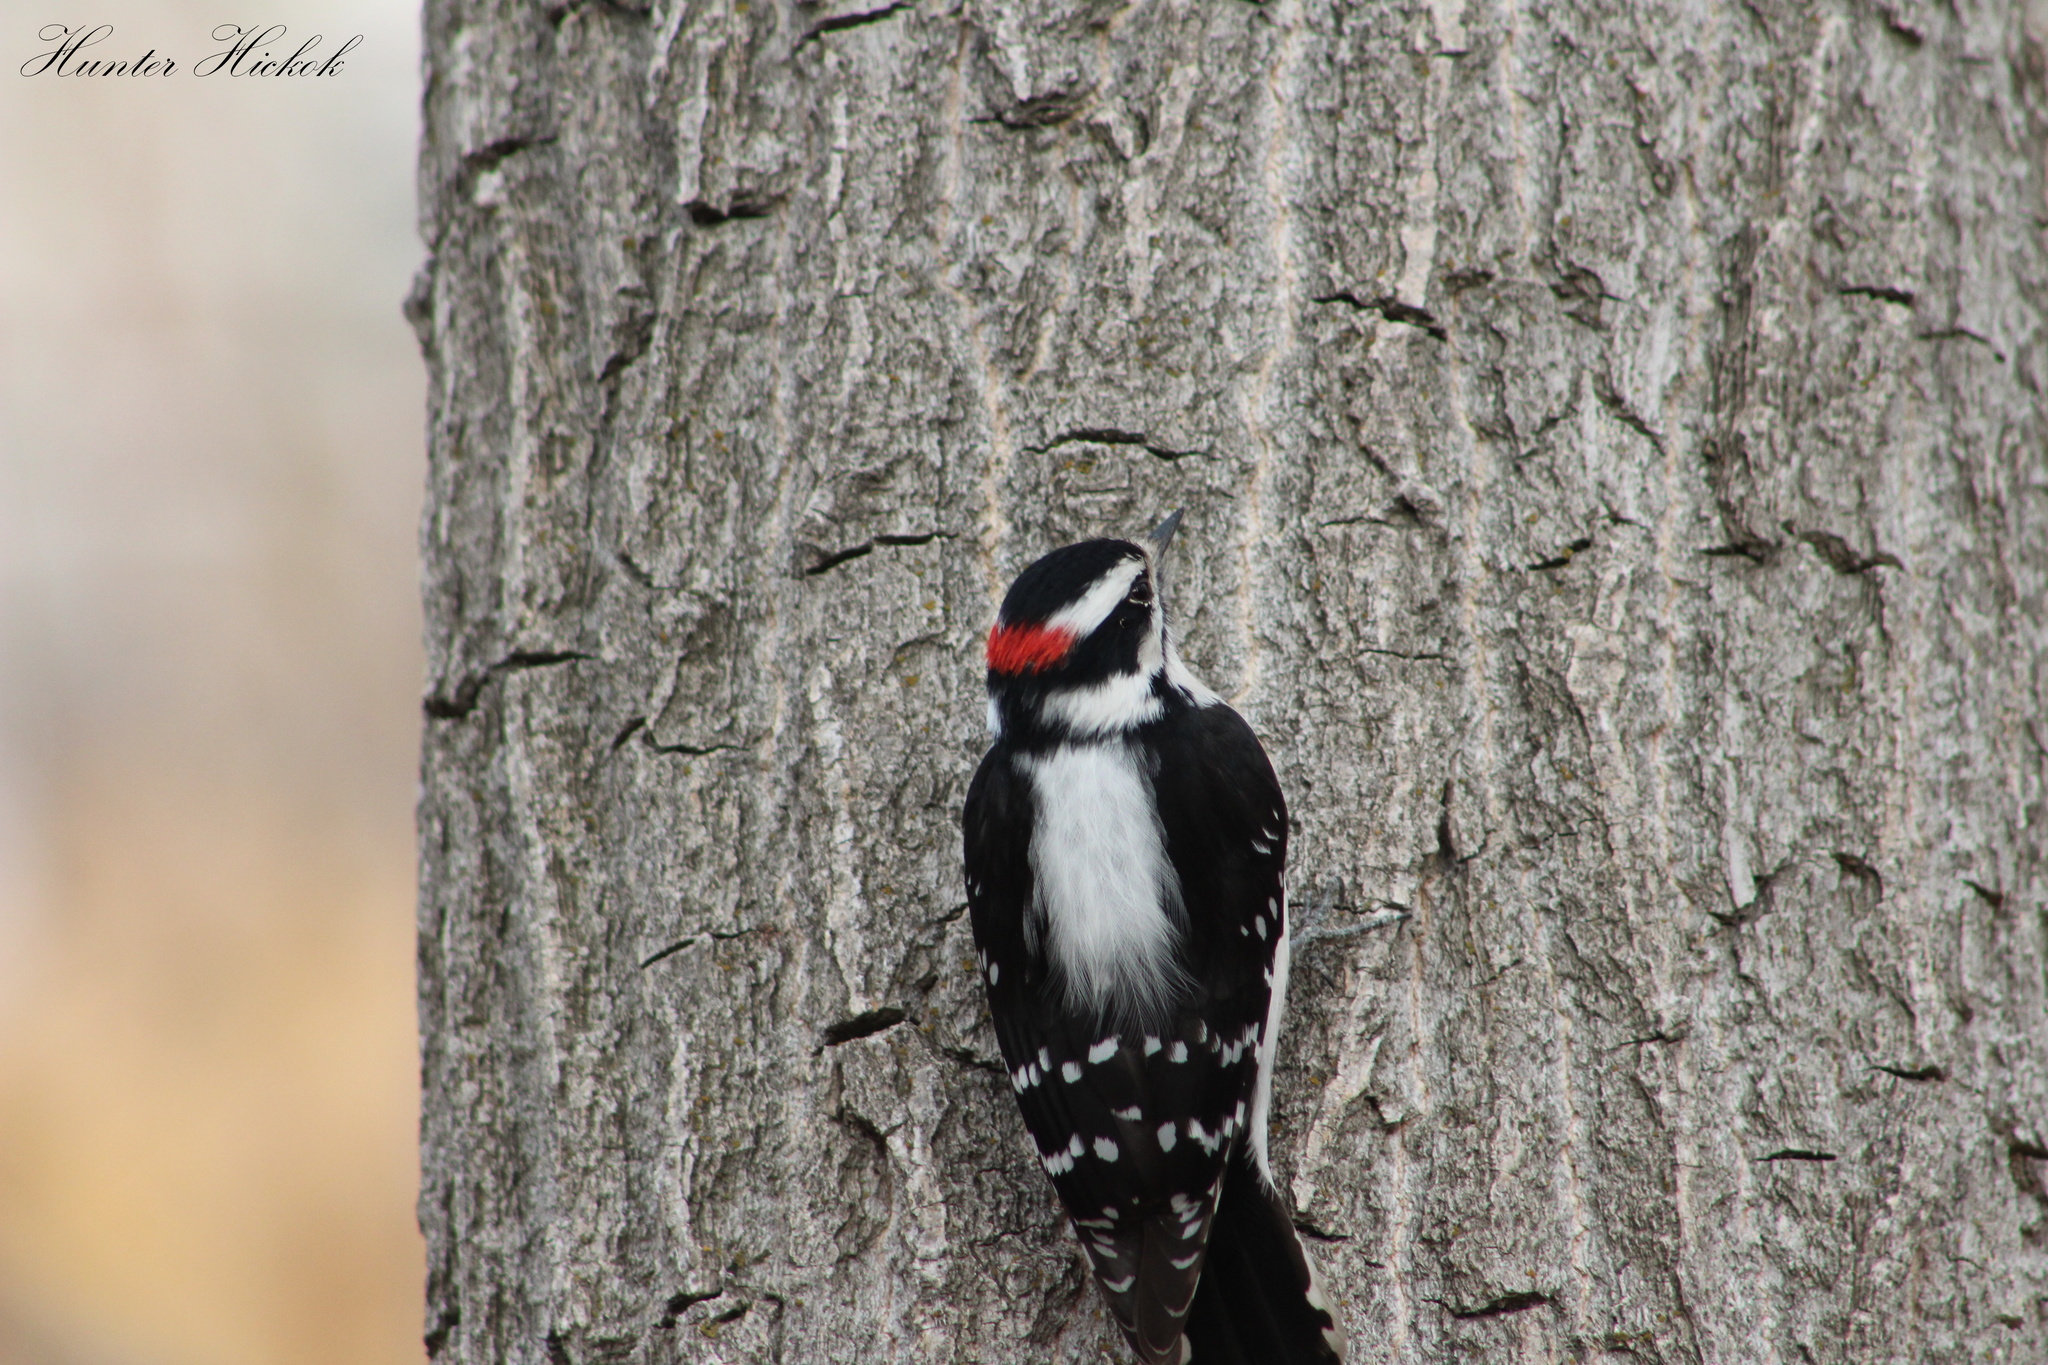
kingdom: Animalia
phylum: Chordata
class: Aves
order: Piciformes
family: Picidae
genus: Dryobates
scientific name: Dryobates pubescens
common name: Downy woodpecker
